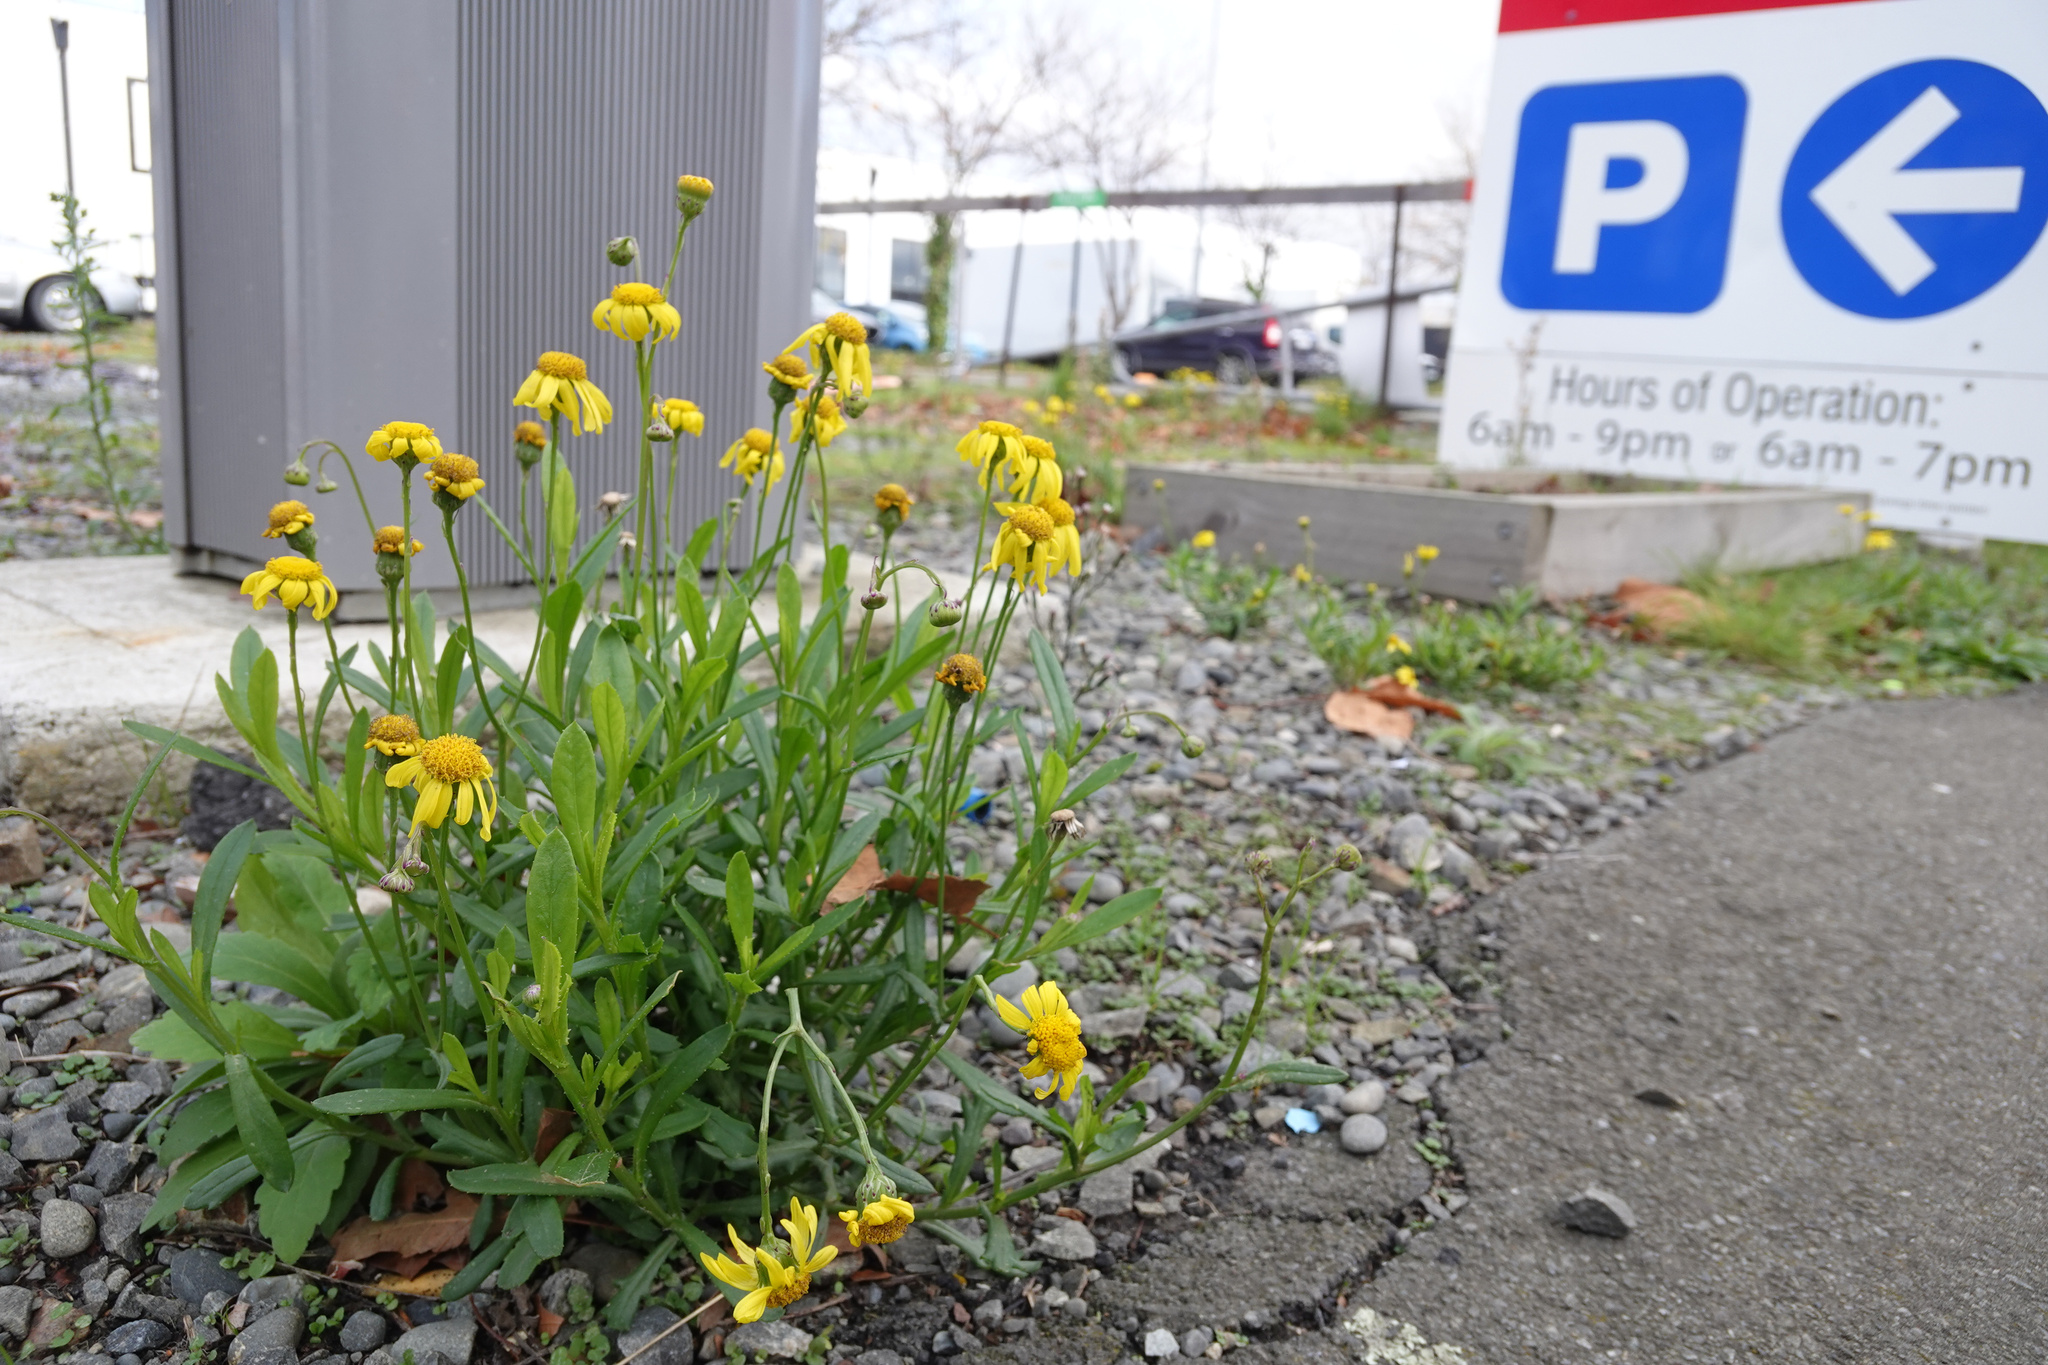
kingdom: Plantae
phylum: Tracheophyta
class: Magnoliopsida
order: Asterales
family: Asteraceae
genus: Senecio
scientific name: Senecio skirrhodon
